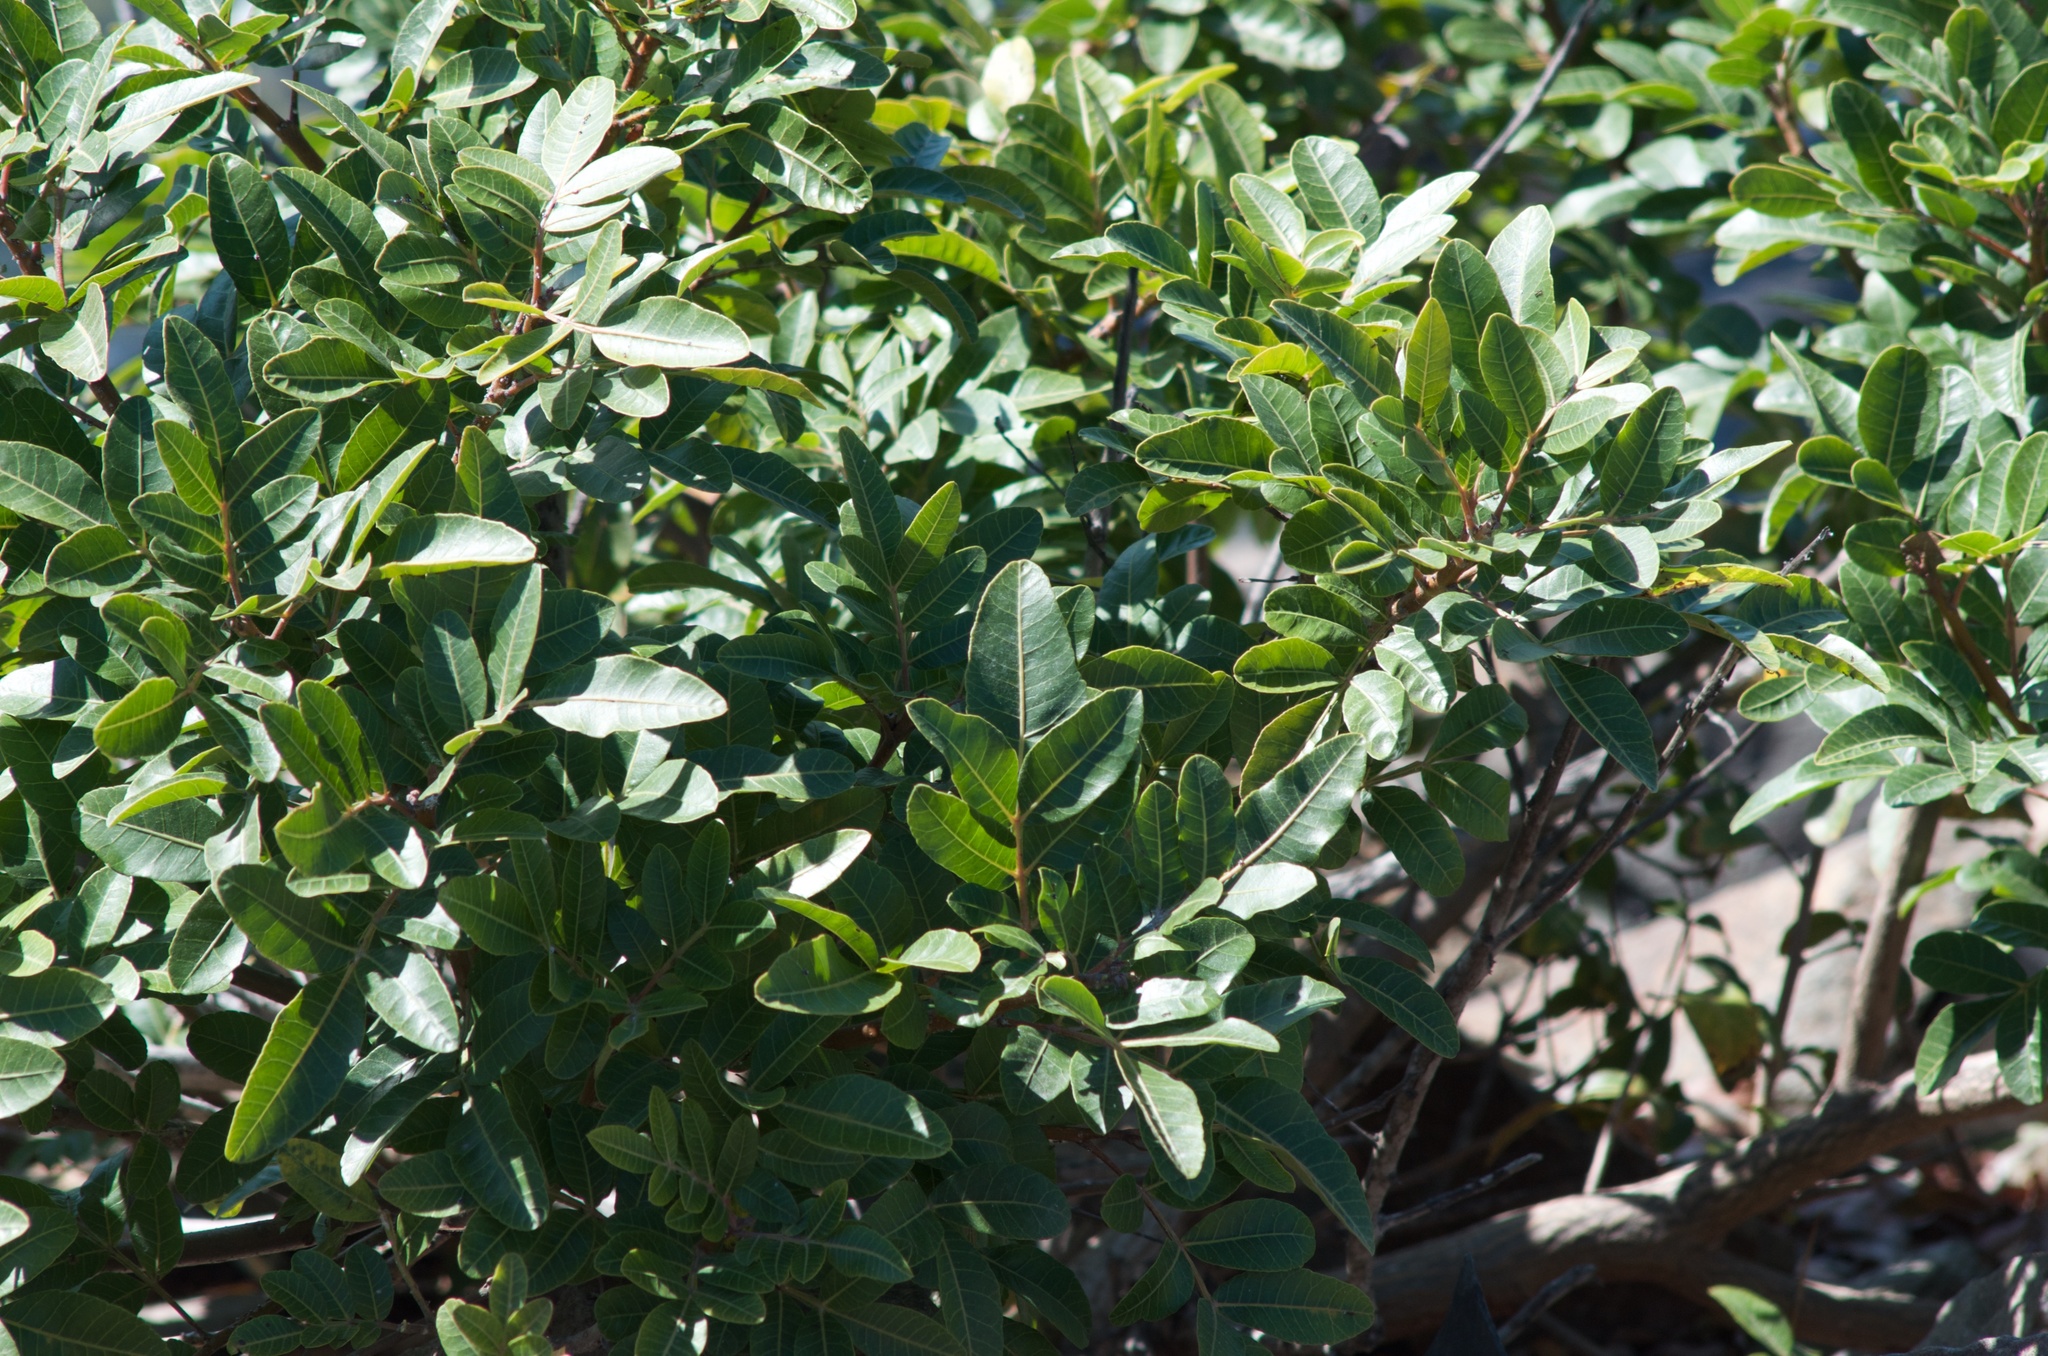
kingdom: Plantae
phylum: Tracheophyta
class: Magnoliopsida
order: Sapindales
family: Anacardiaceae
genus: Schinus
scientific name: Schinus terebinthifolia
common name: Brazilian peppertree
